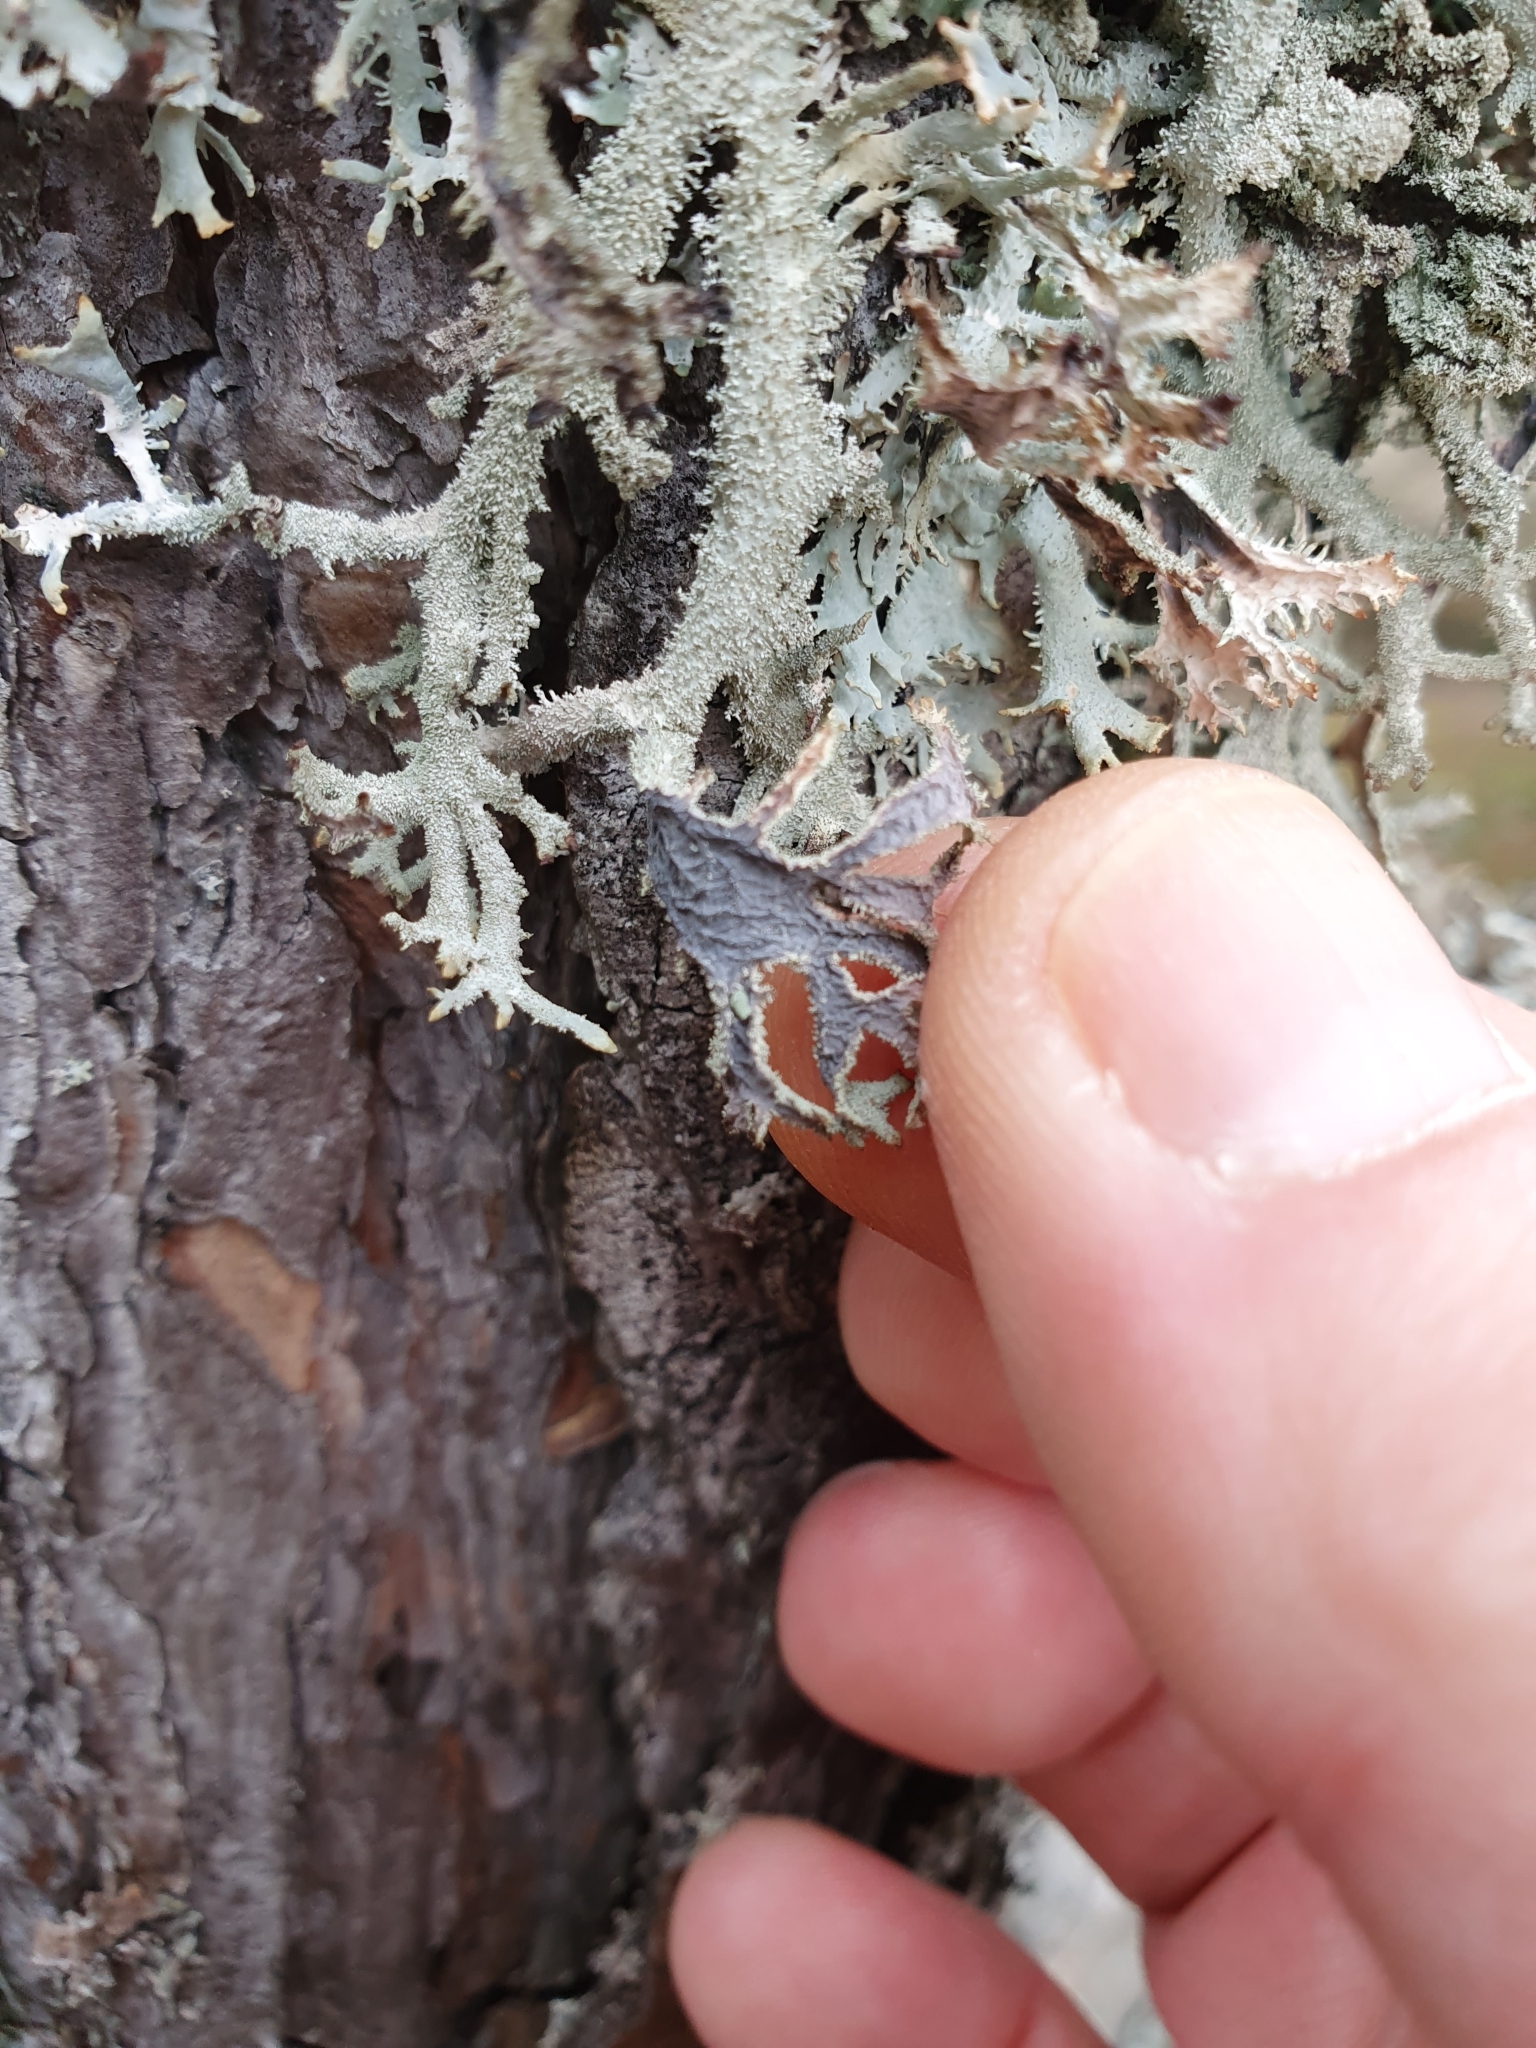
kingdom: Fungi
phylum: Ascomycota
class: Lecanoromycetes
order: Lecanorales
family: Parmeliaceae
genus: Pseudevernia
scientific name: Pseudevernia furfuracea
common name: Tree moss
